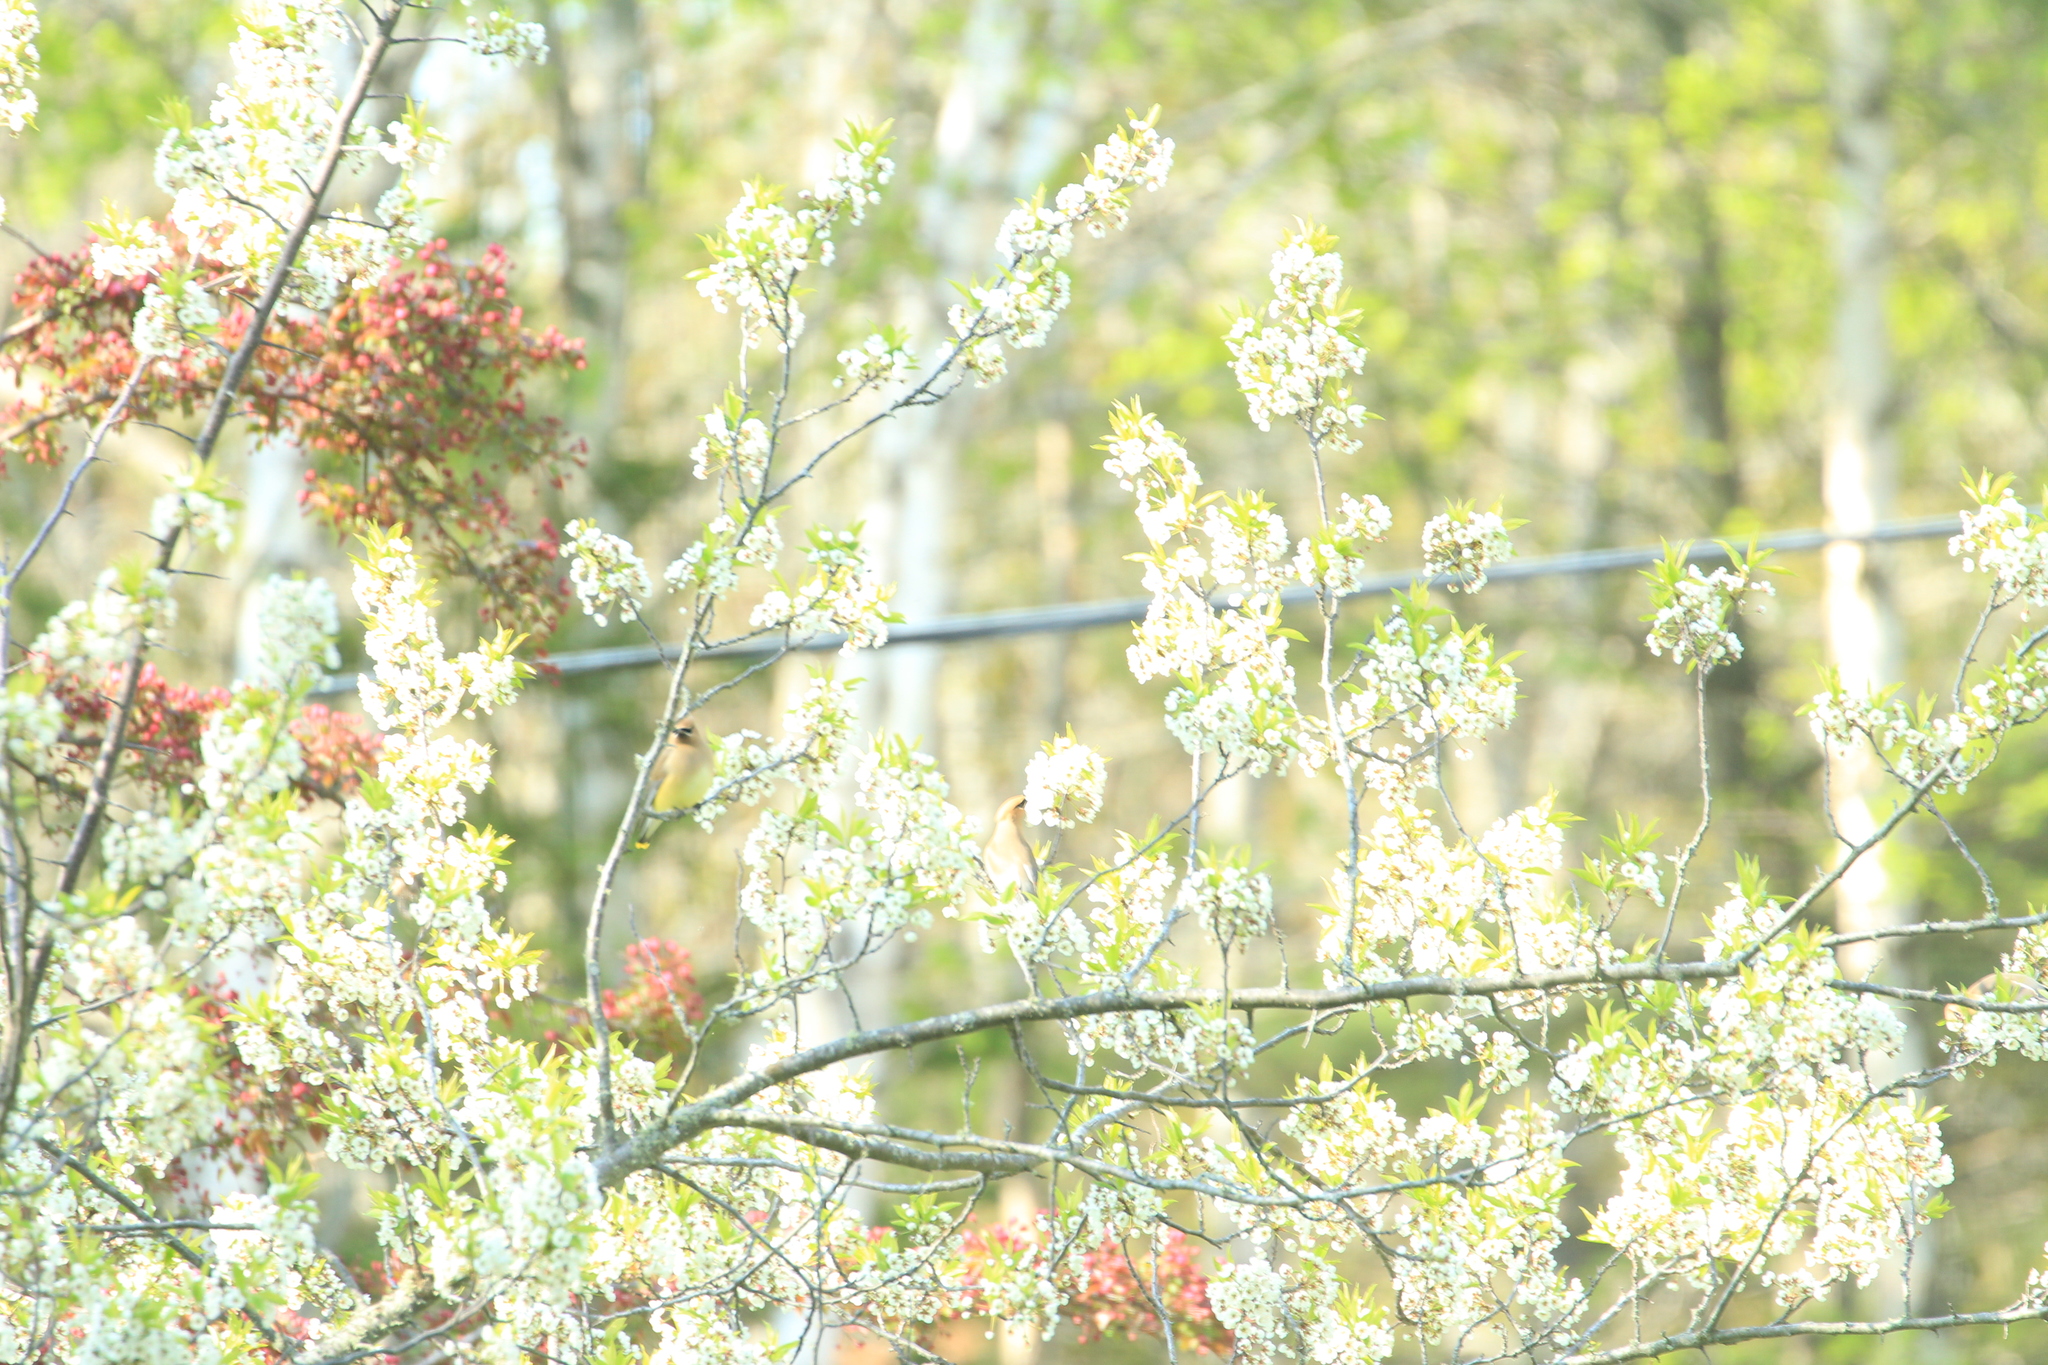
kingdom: Animalia
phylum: Chordata
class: Aves
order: Passeriformes
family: Bombycillidae
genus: Bombycilla
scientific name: Bombycilla cedrorum
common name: Cedar waxwing
